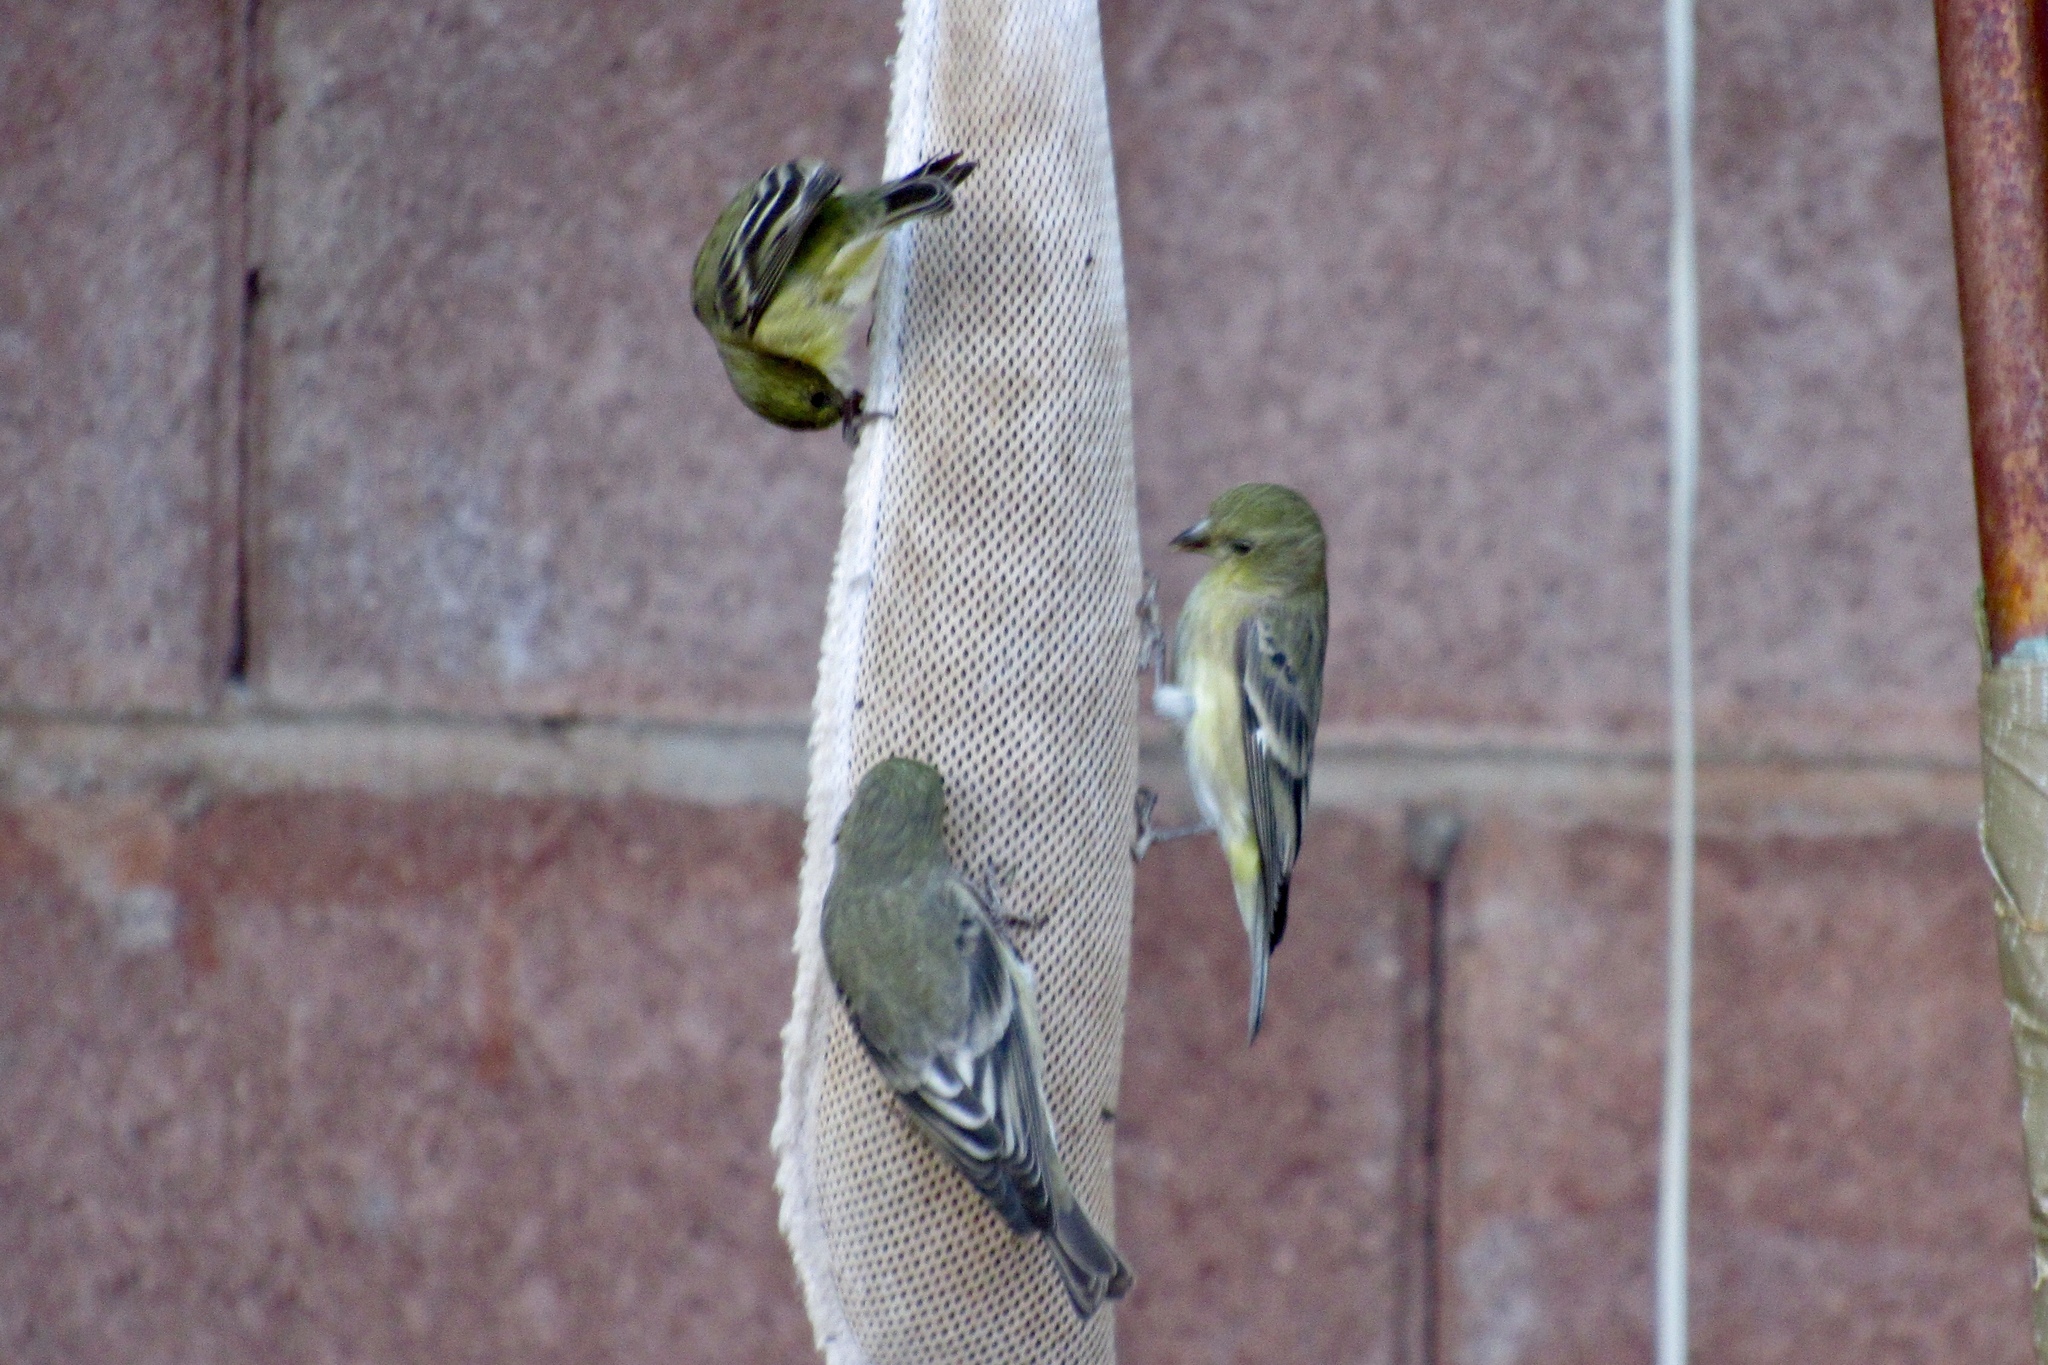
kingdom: Animalia
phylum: Chordata
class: Aves
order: Passeriformes
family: Fringillidae
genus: Spinus
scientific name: Spinus psaltria
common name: Lesser goldfinch
